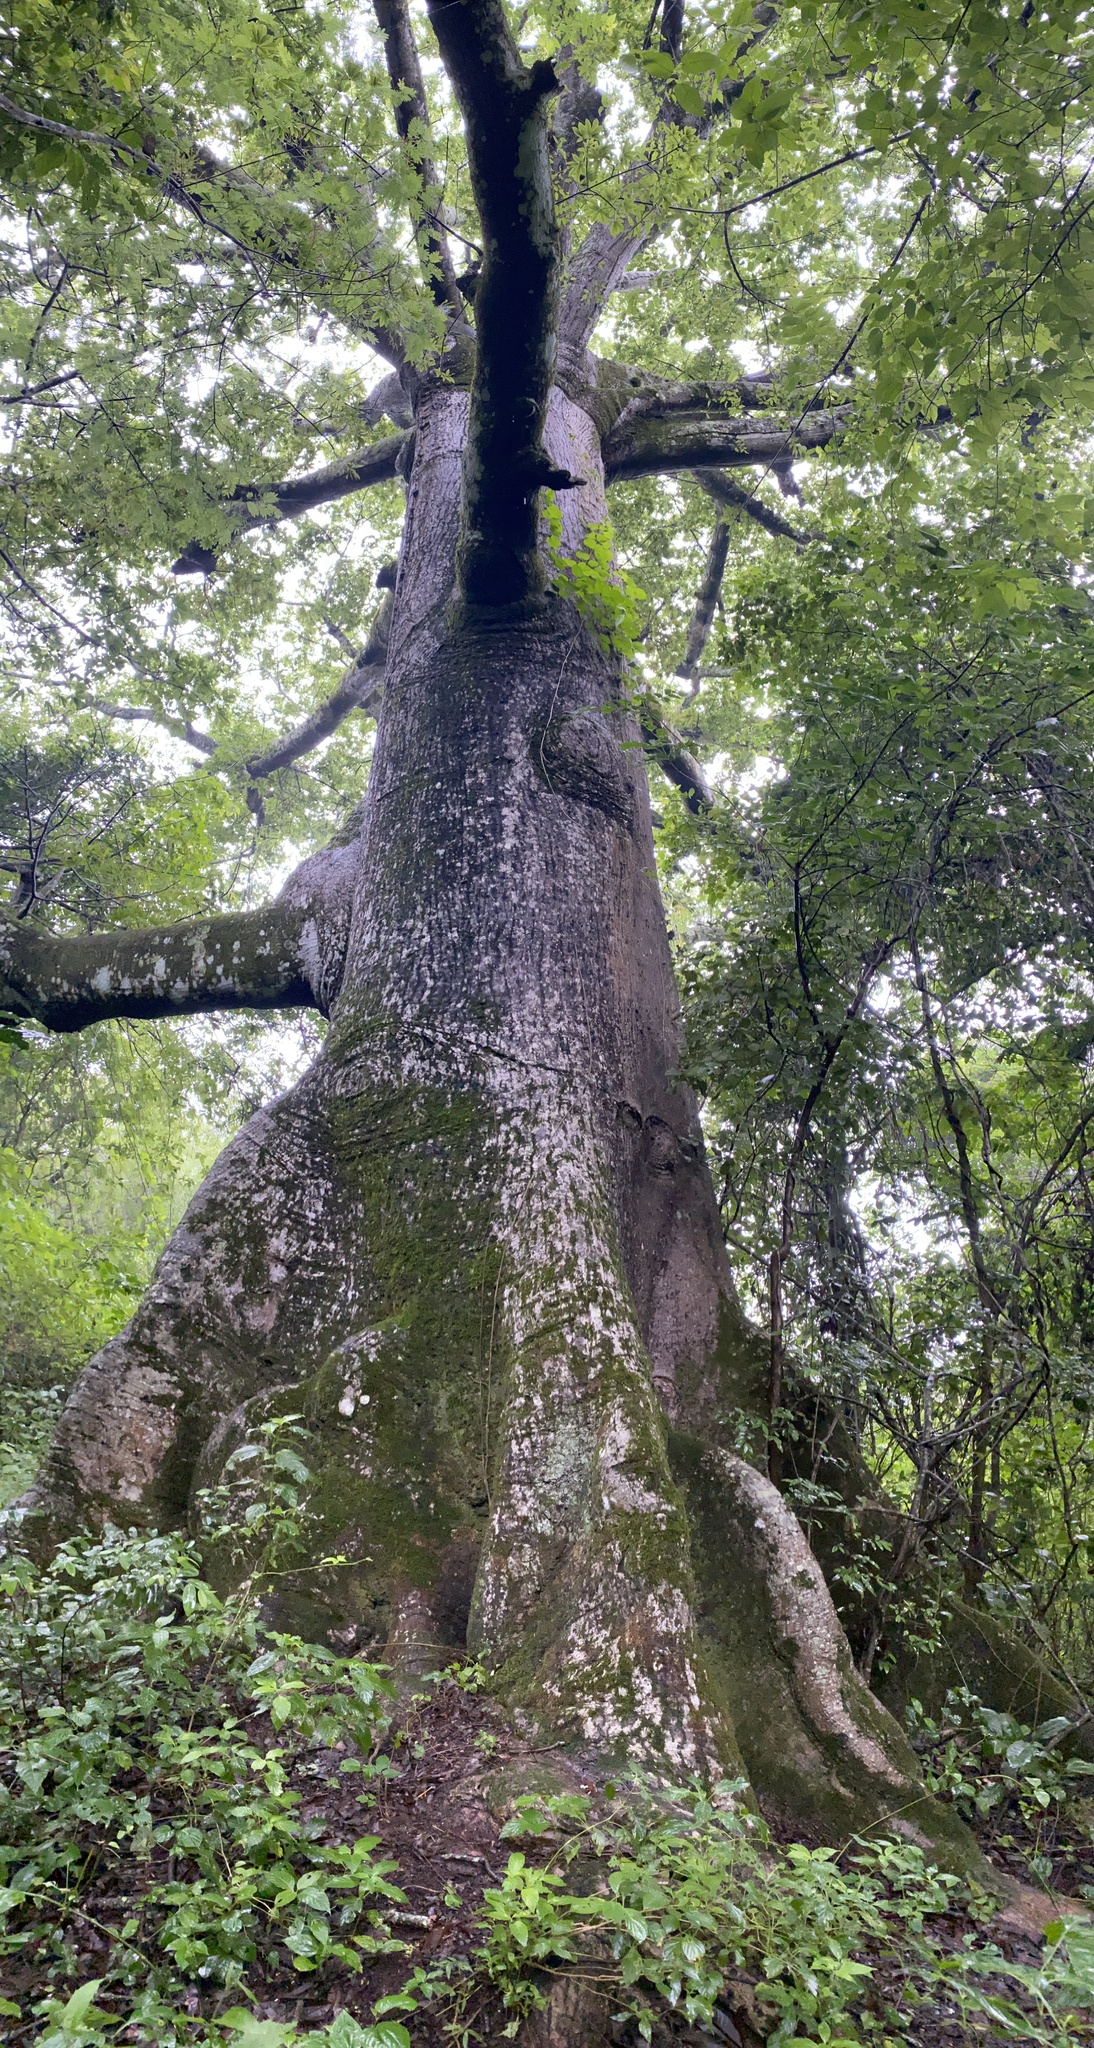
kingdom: Plantae
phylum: Tracheophyta
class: Magnoliopsida
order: Malvales
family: Malvaceae
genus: Ceiba
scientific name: Ceiba pentandra
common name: Kapok
